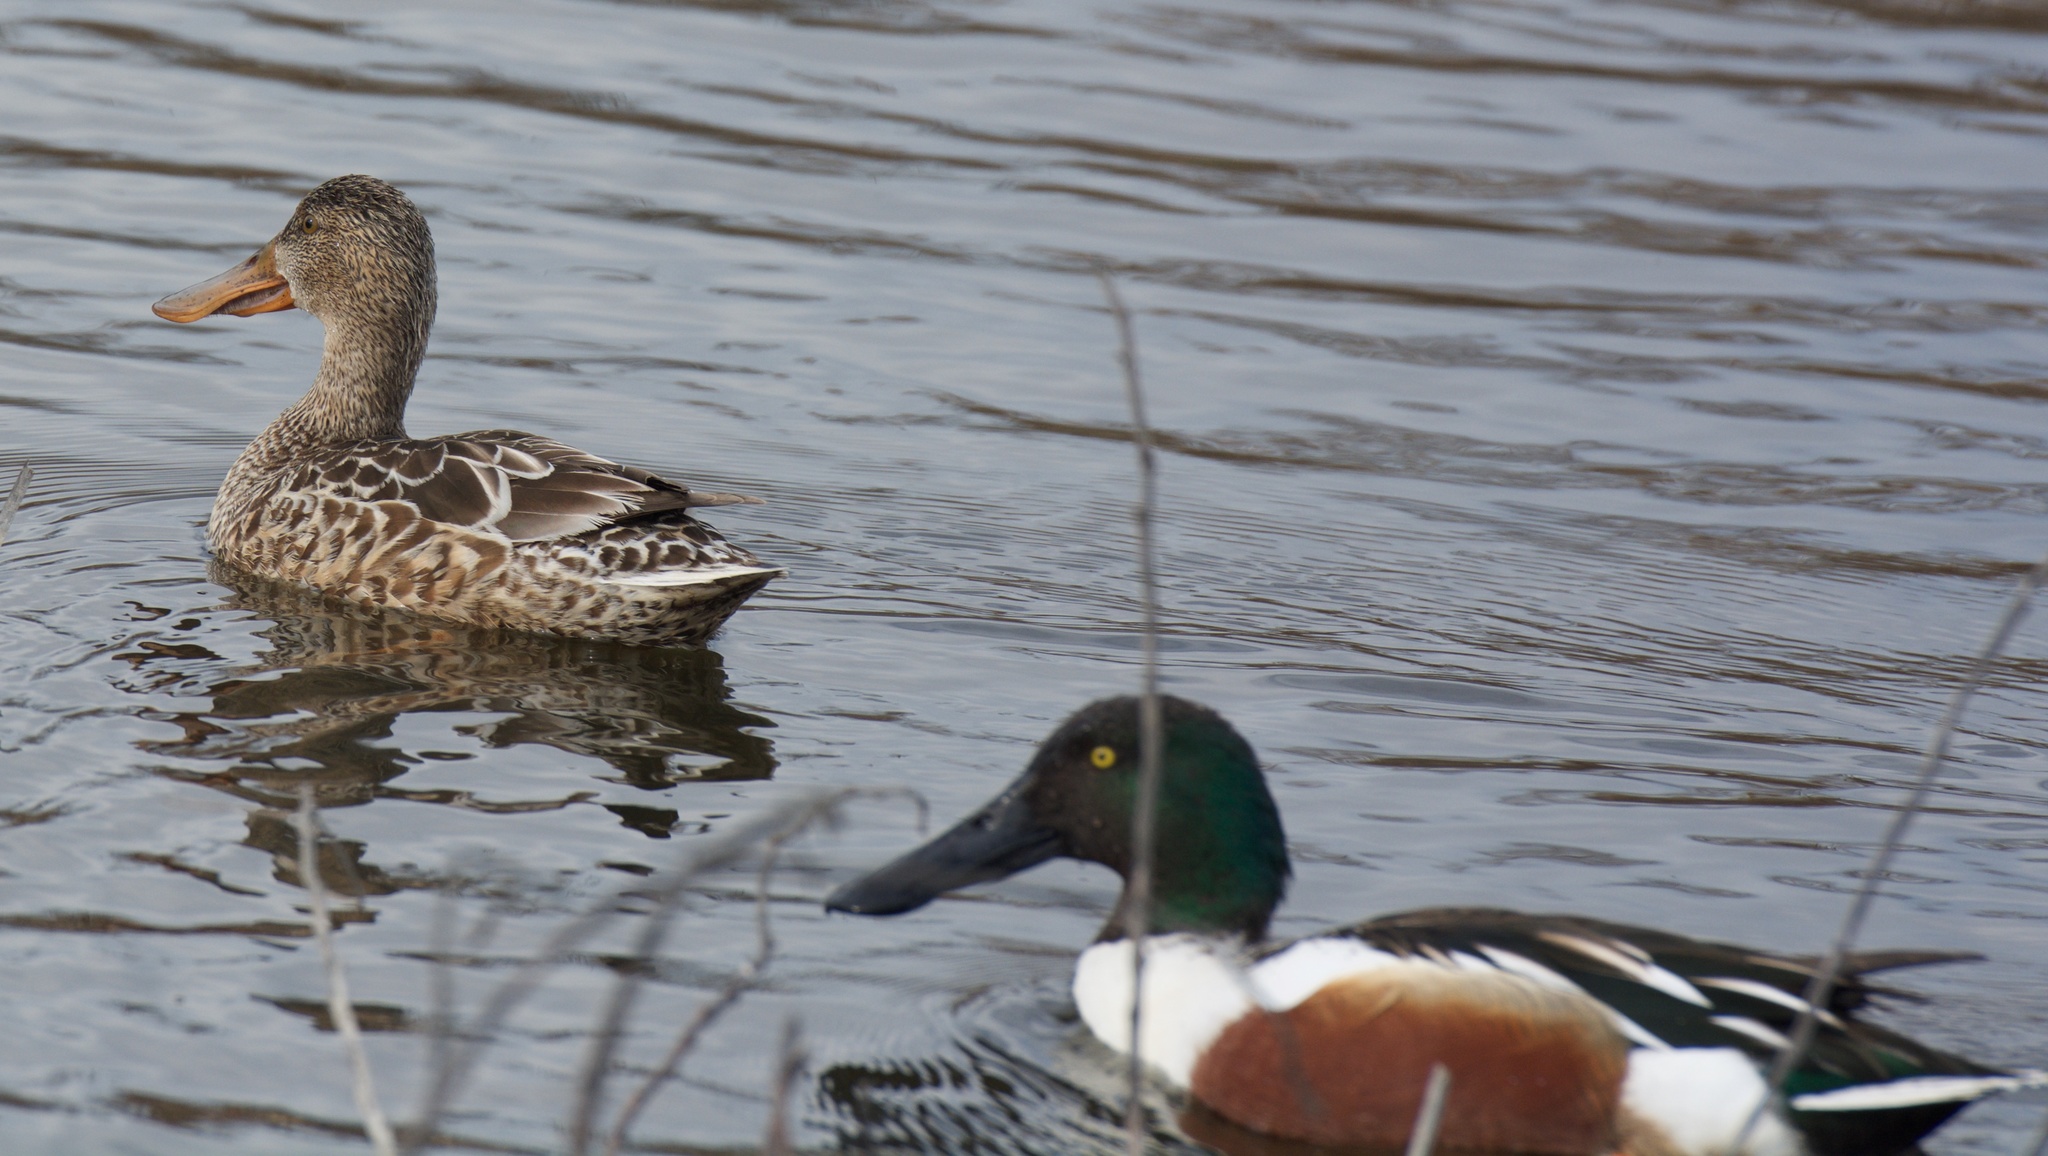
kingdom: Animalia
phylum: Chordata
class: Aves
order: Anseriformes
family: Anatidae
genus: Spatula
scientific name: Spatula clypeata
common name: Northern shoveler
